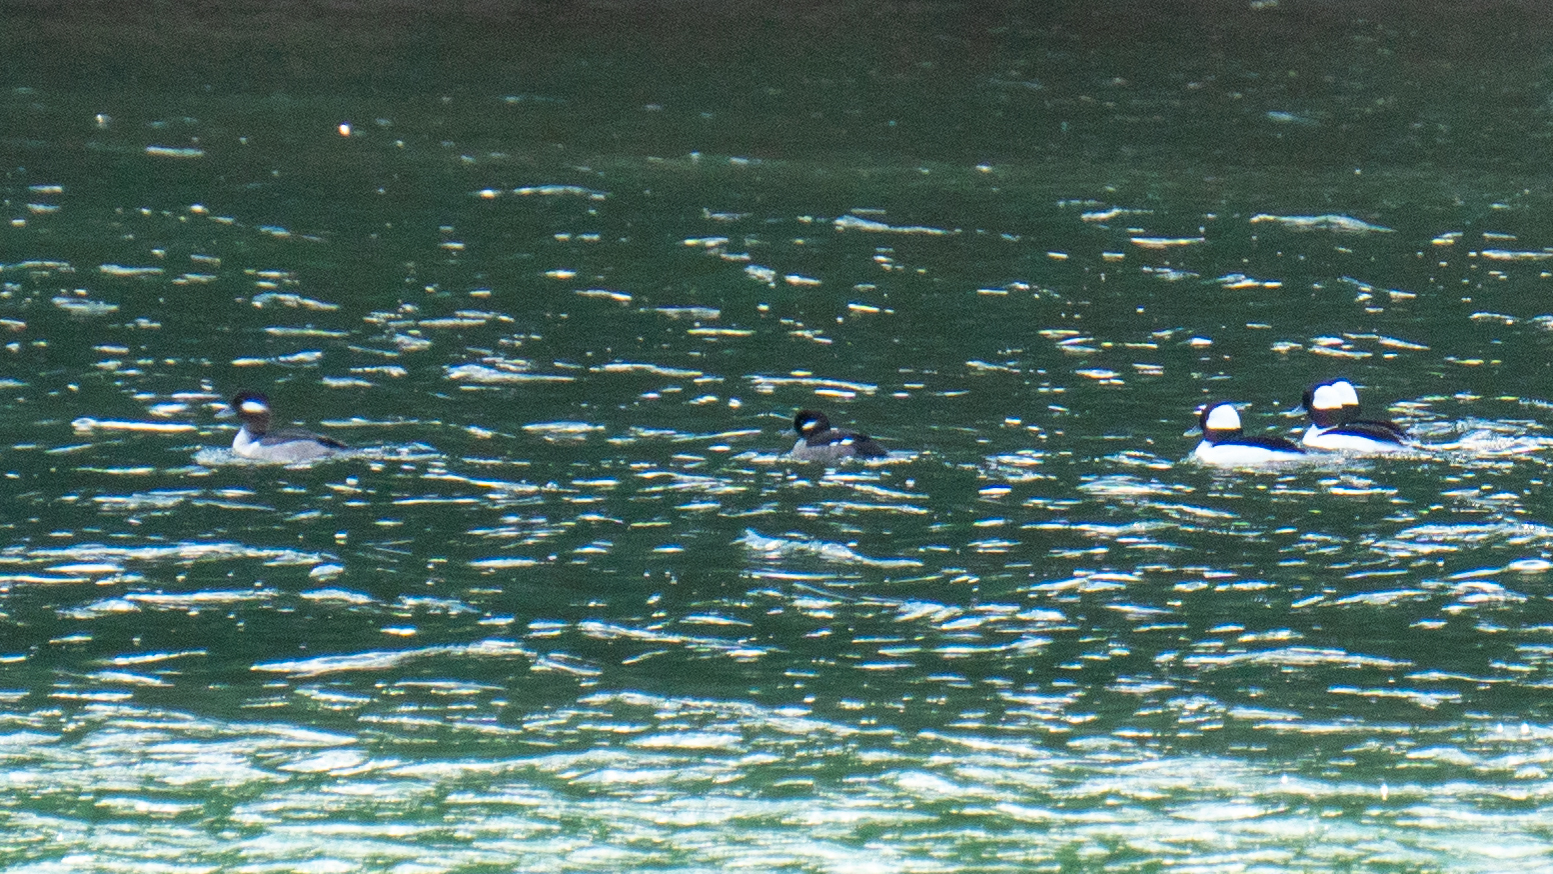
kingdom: Animalia
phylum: Chordata
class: Aves
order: Anseriformes
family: Anatidae
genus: Bucephala
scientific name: Bucephala albeola
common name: Bufflehead
